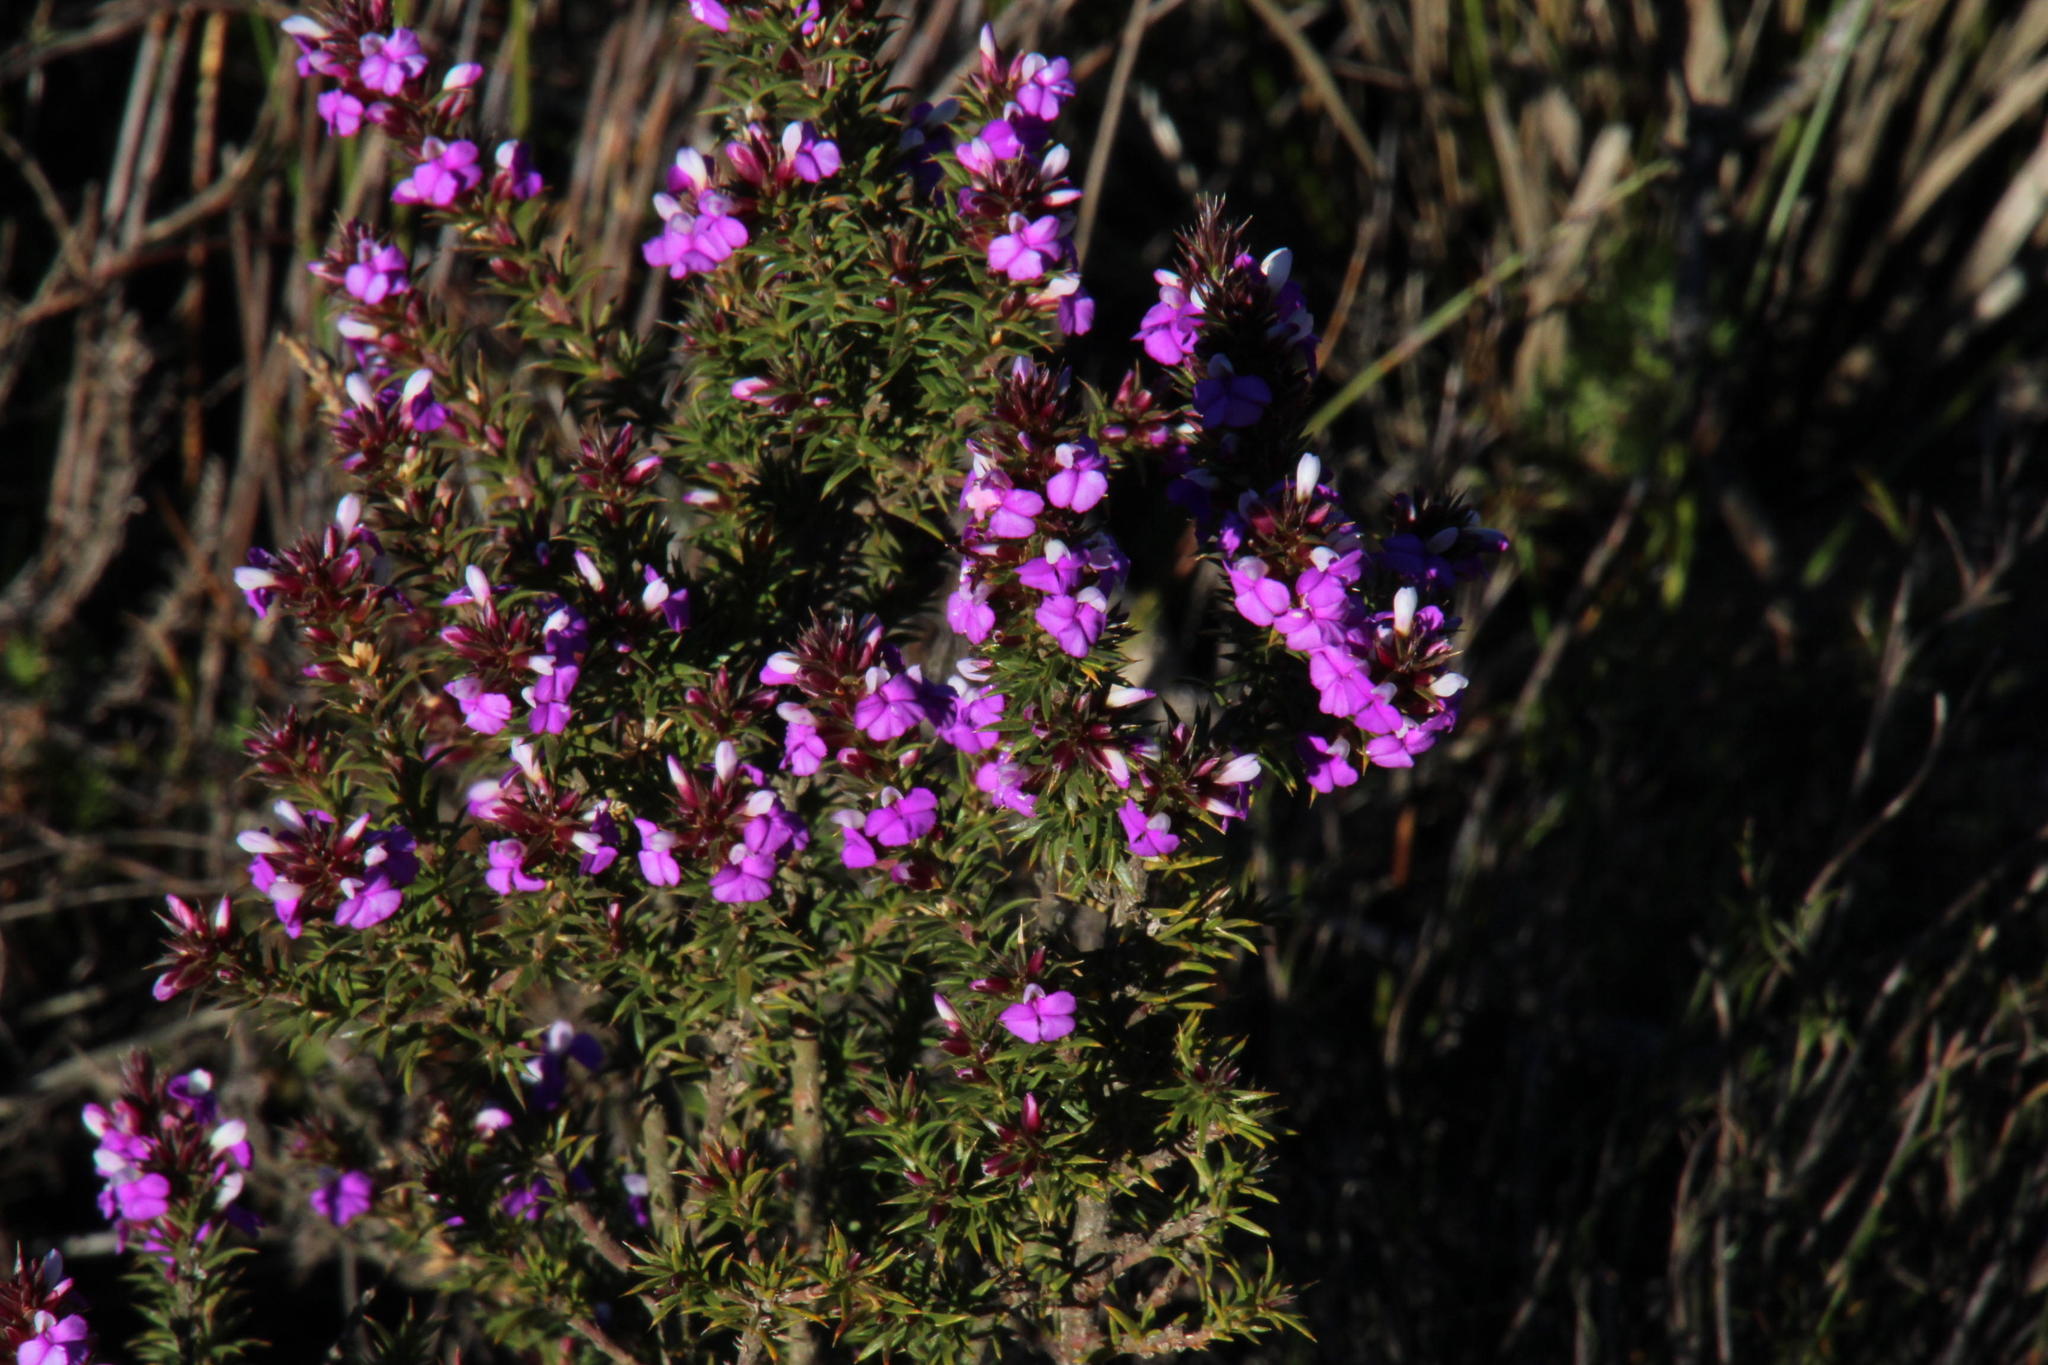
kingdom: Plantae
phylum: Tracheophyta
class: Magnoliopsida
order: Fabales
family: Polygalaceae
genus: Muraltia
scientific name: Muraltia heisteria
